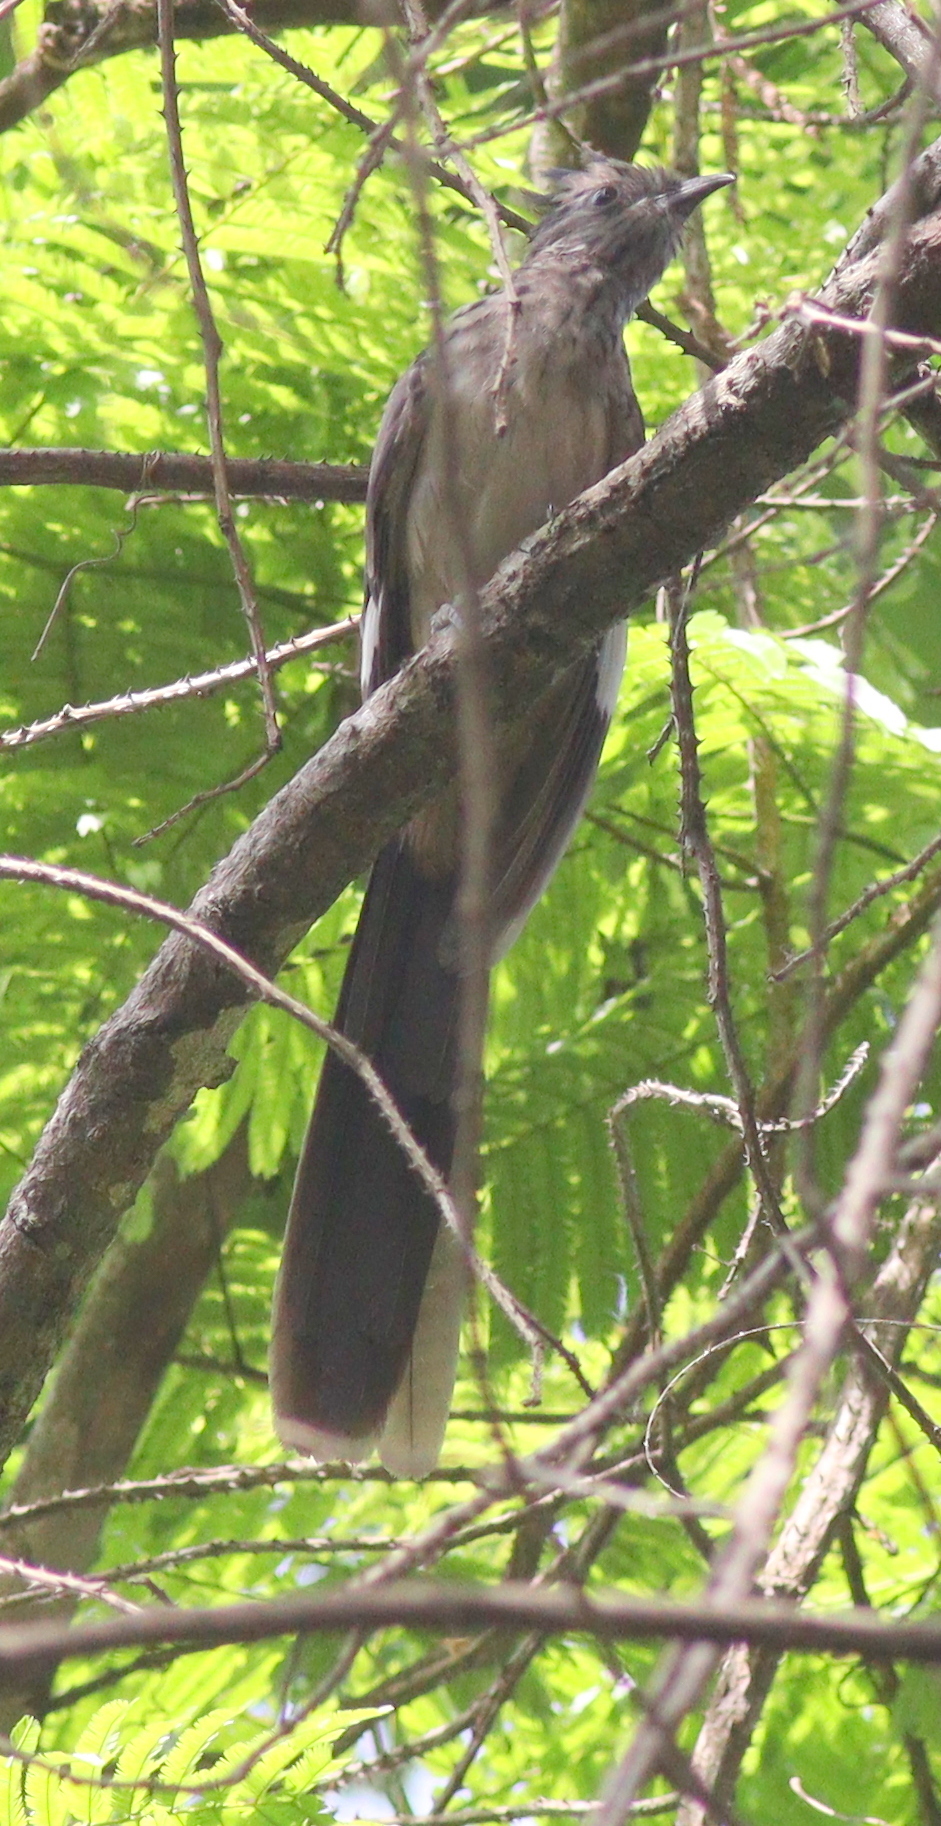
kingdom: Animalia
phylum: Chordata
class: Aves
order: Cuculiformes
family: Cuculidae
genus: Clamator
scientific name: Clamator levaillantii
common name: Levaillant's cuckoo
